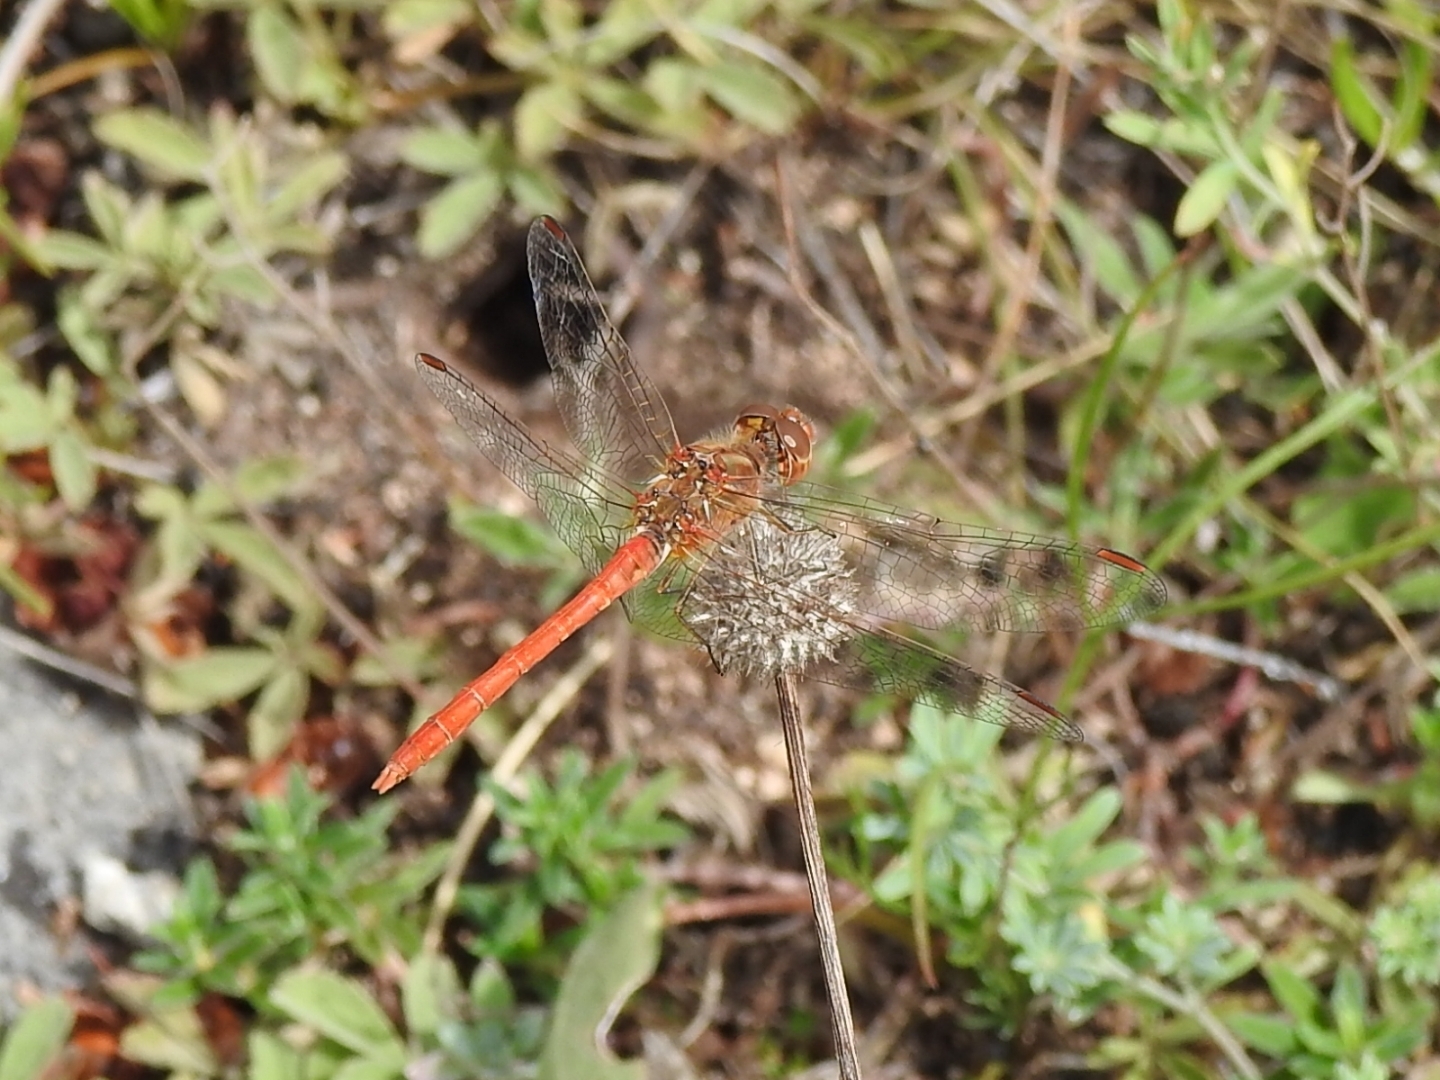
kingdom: Animalia
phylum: Arthropoda
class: Insecta
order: Odonata
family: Libellulidae
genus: Sympetrum
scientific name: Sympetrum meridionale
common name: Southern darter
